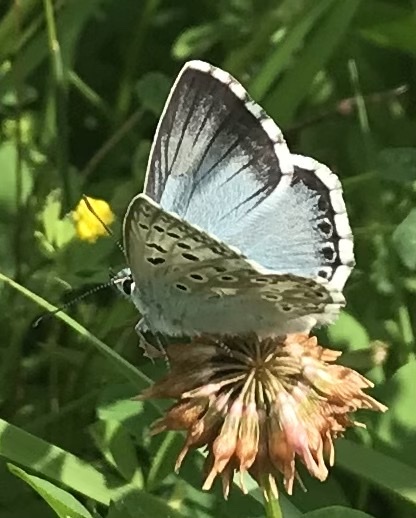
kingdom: Animalia
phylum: Arthropoda
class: Insecta
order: Lepidoptera
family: Lycaenidae
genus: Lysandra
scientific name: Lysandra coridon
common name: Chalkhill blue
